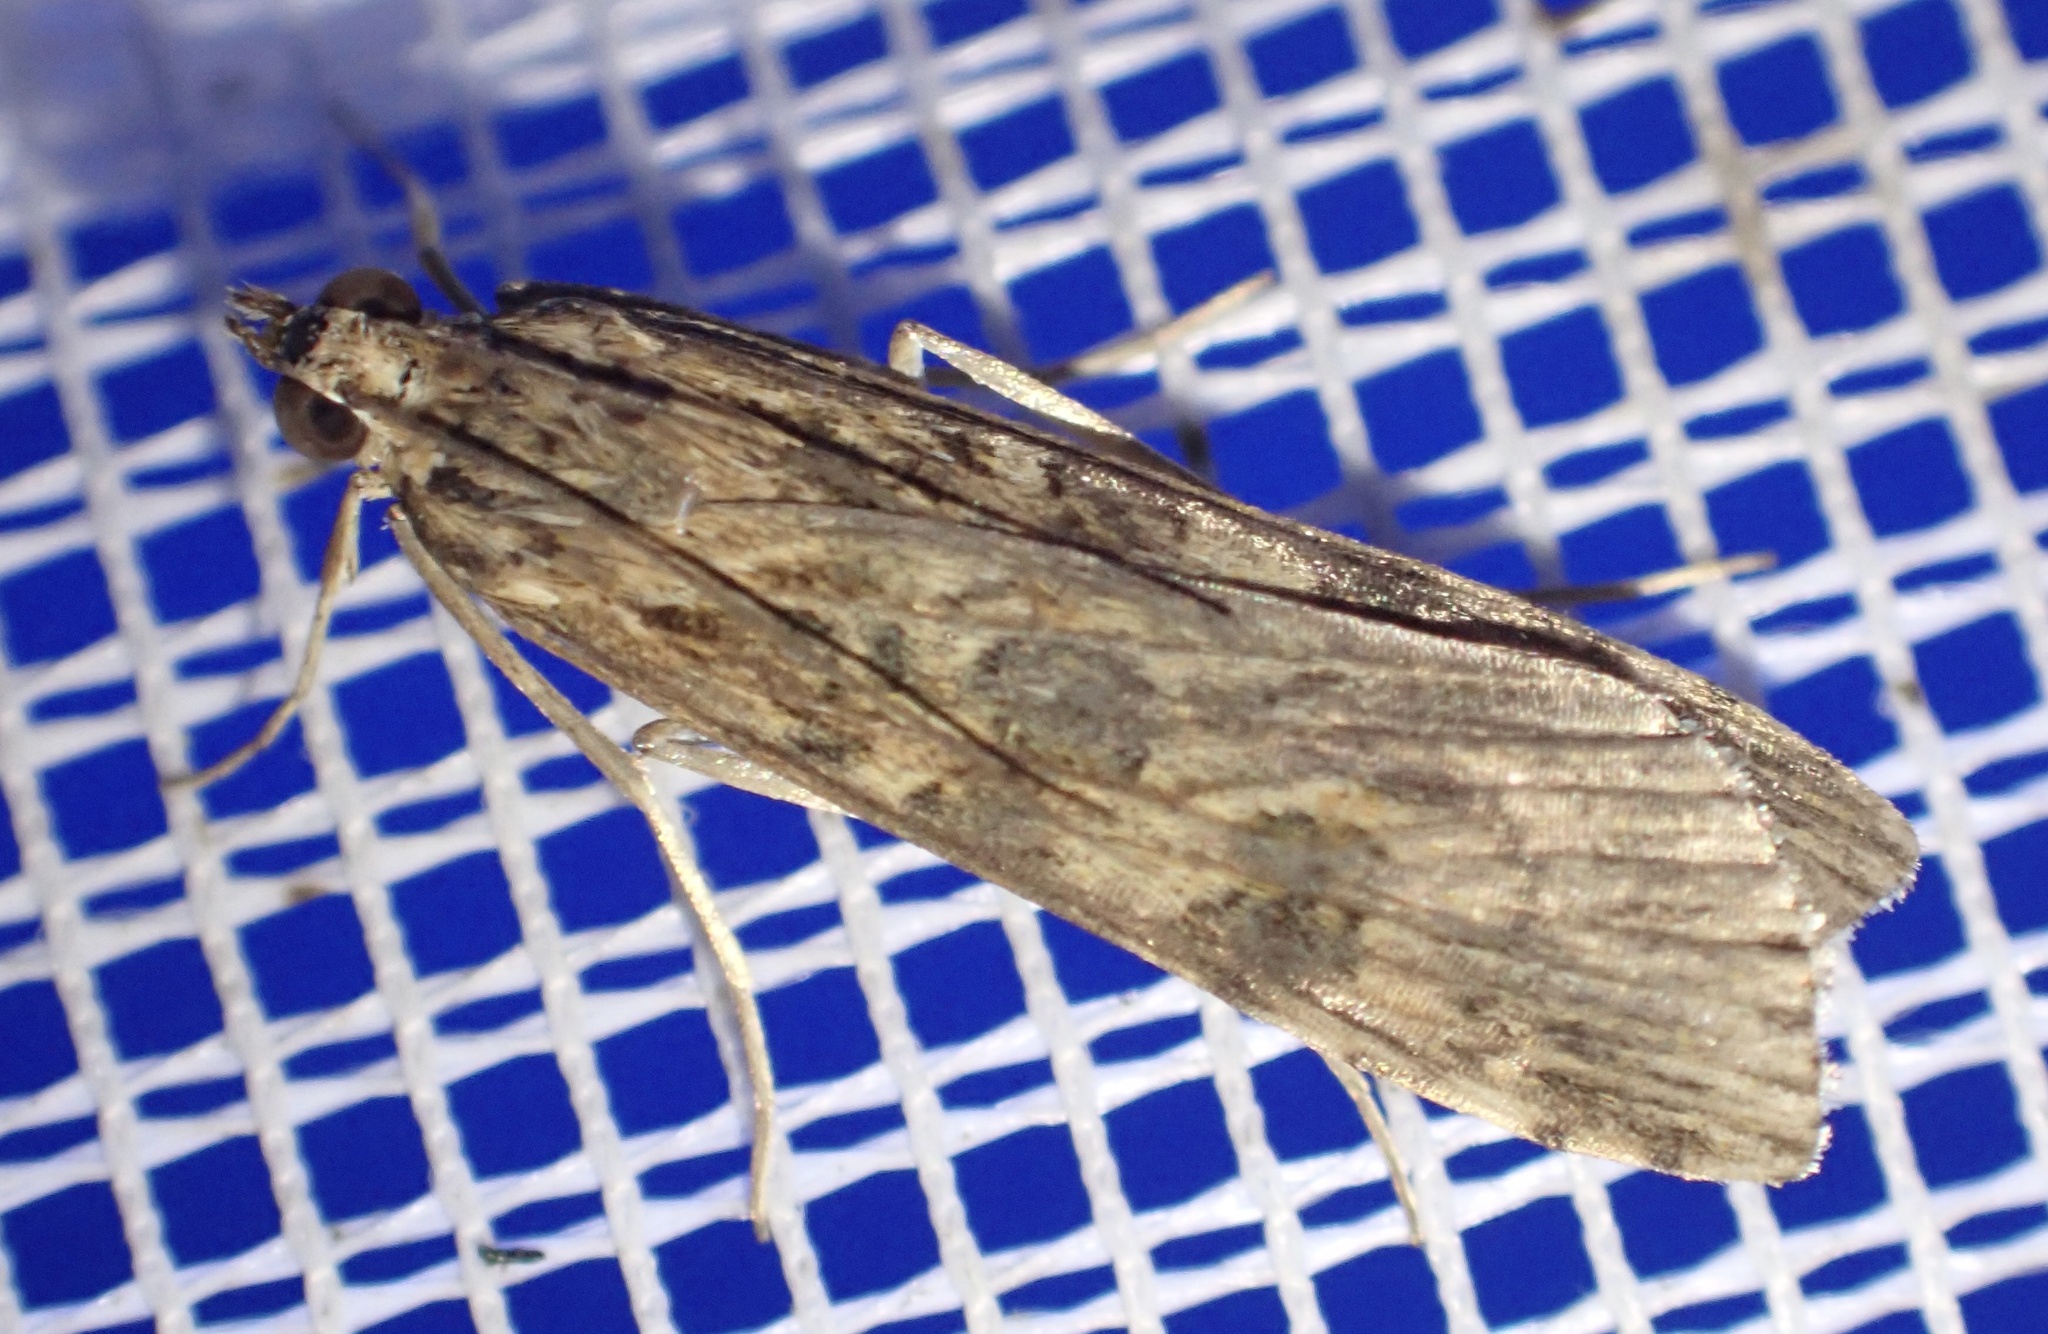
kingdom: Animalia
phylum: Arthropoda
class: Insecta
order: Lepidoptera
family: Crambidae
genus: Nomophila
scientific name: Nomophila noctuella
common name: Rush veneer
